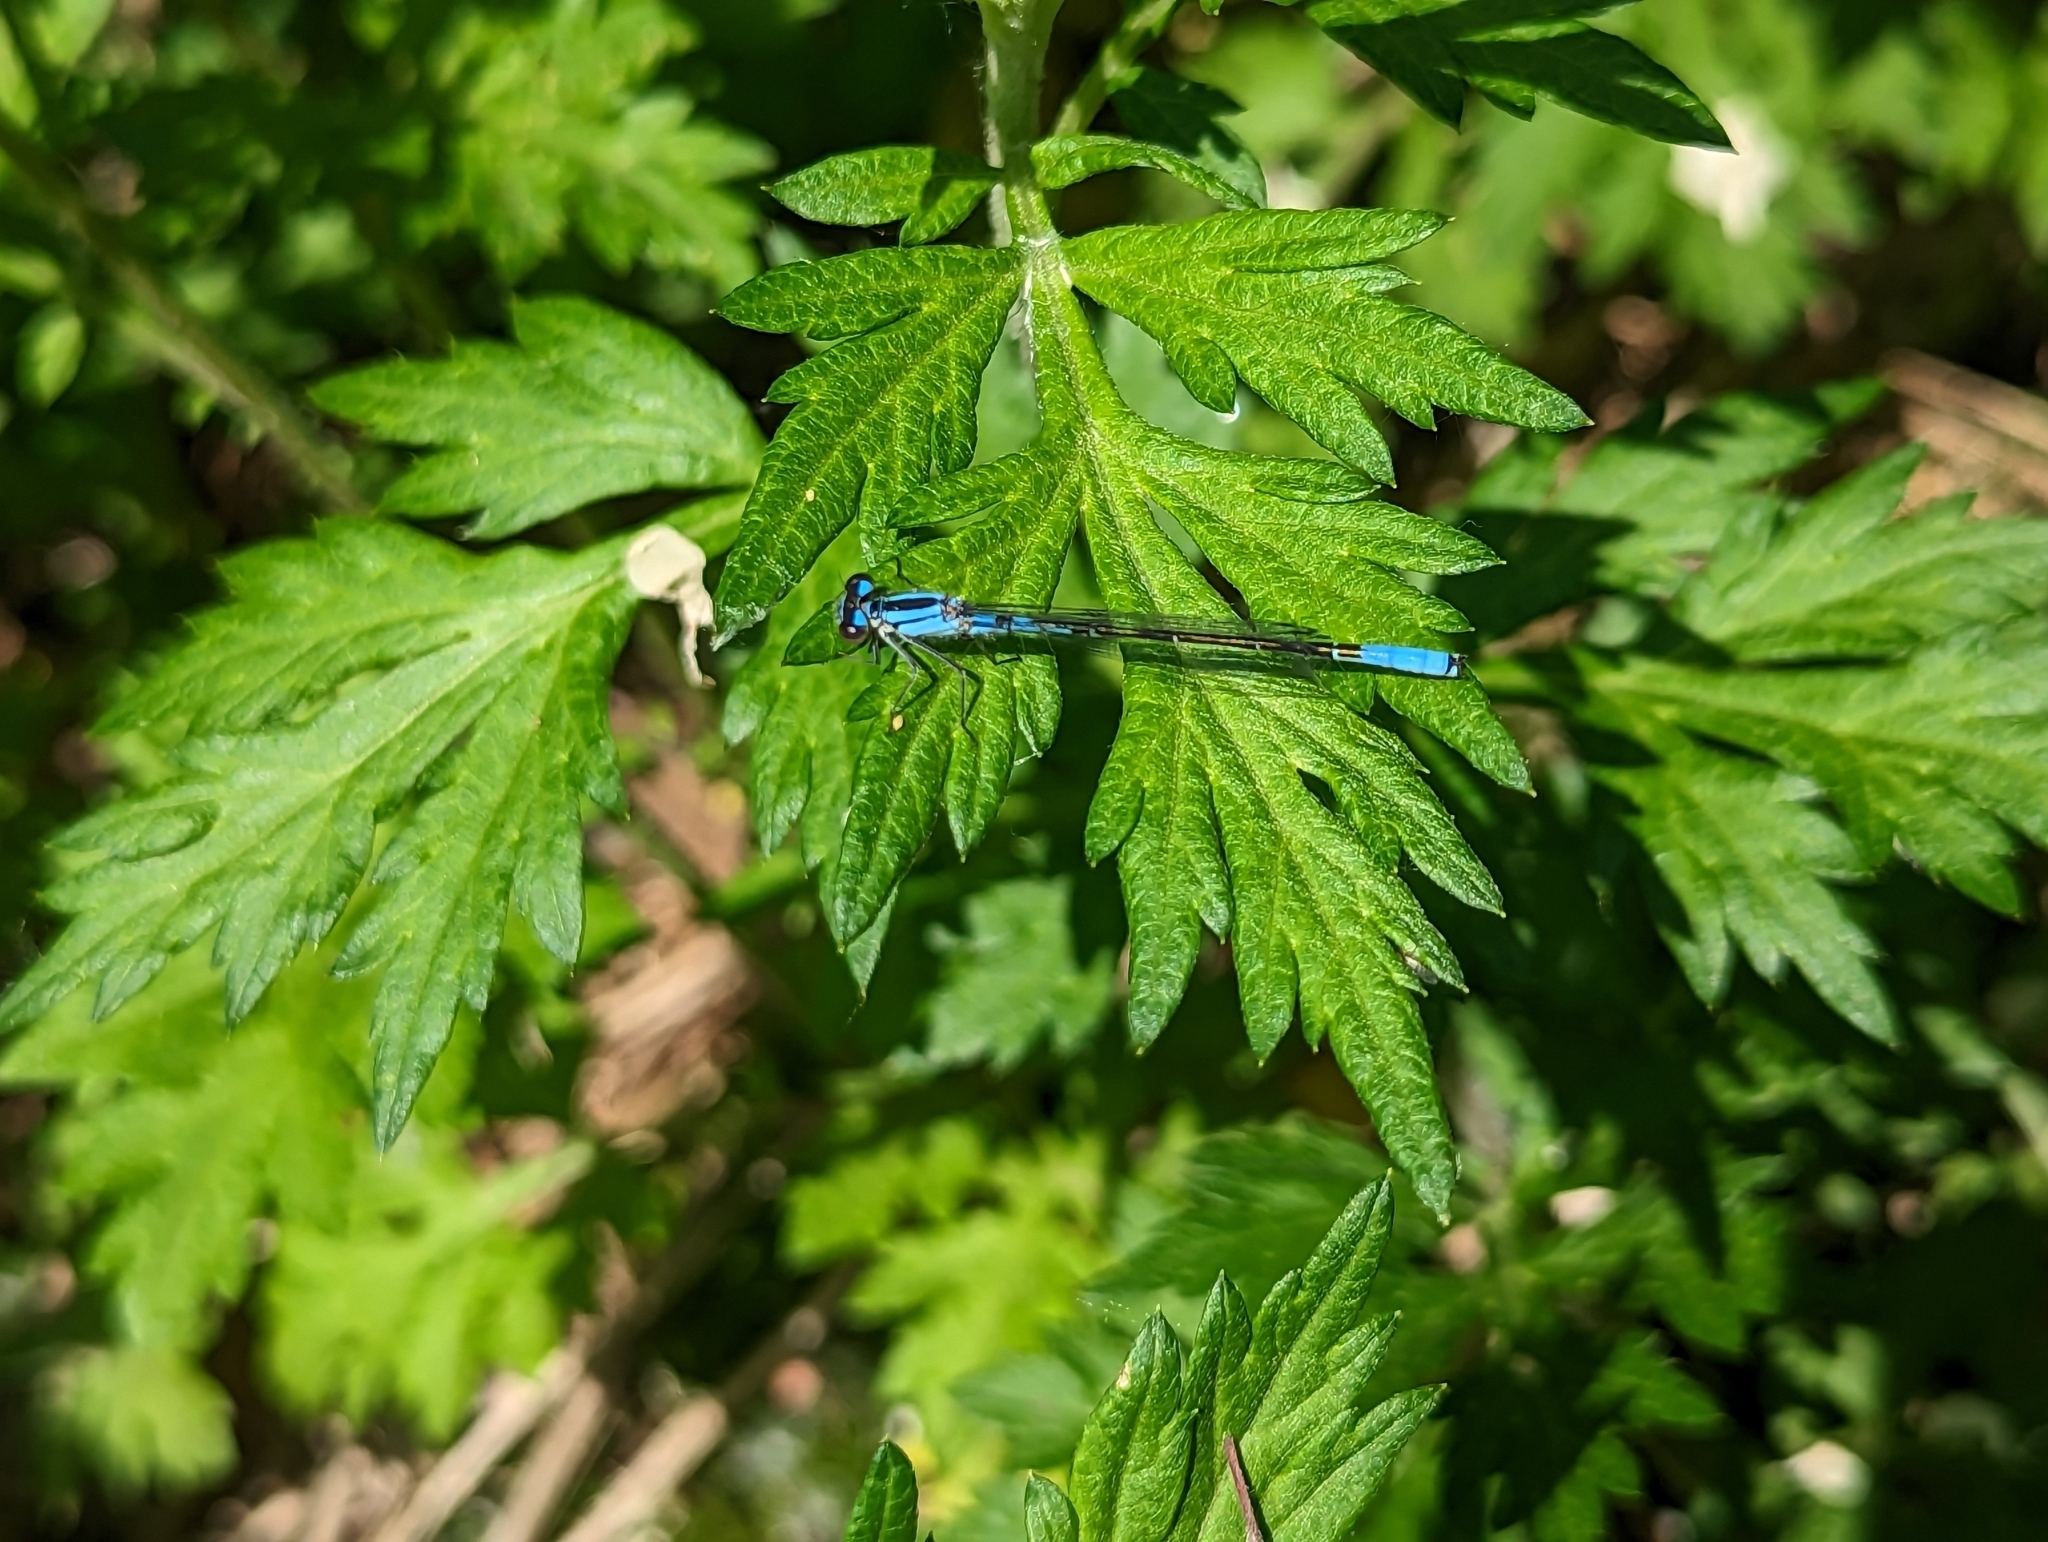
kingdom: Animalia
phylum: Arthropoda
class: Insecta
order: Odonata
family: Coenagrionidae
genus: Enallagma
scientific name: Enallagma aspersum
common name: Azure bluet
